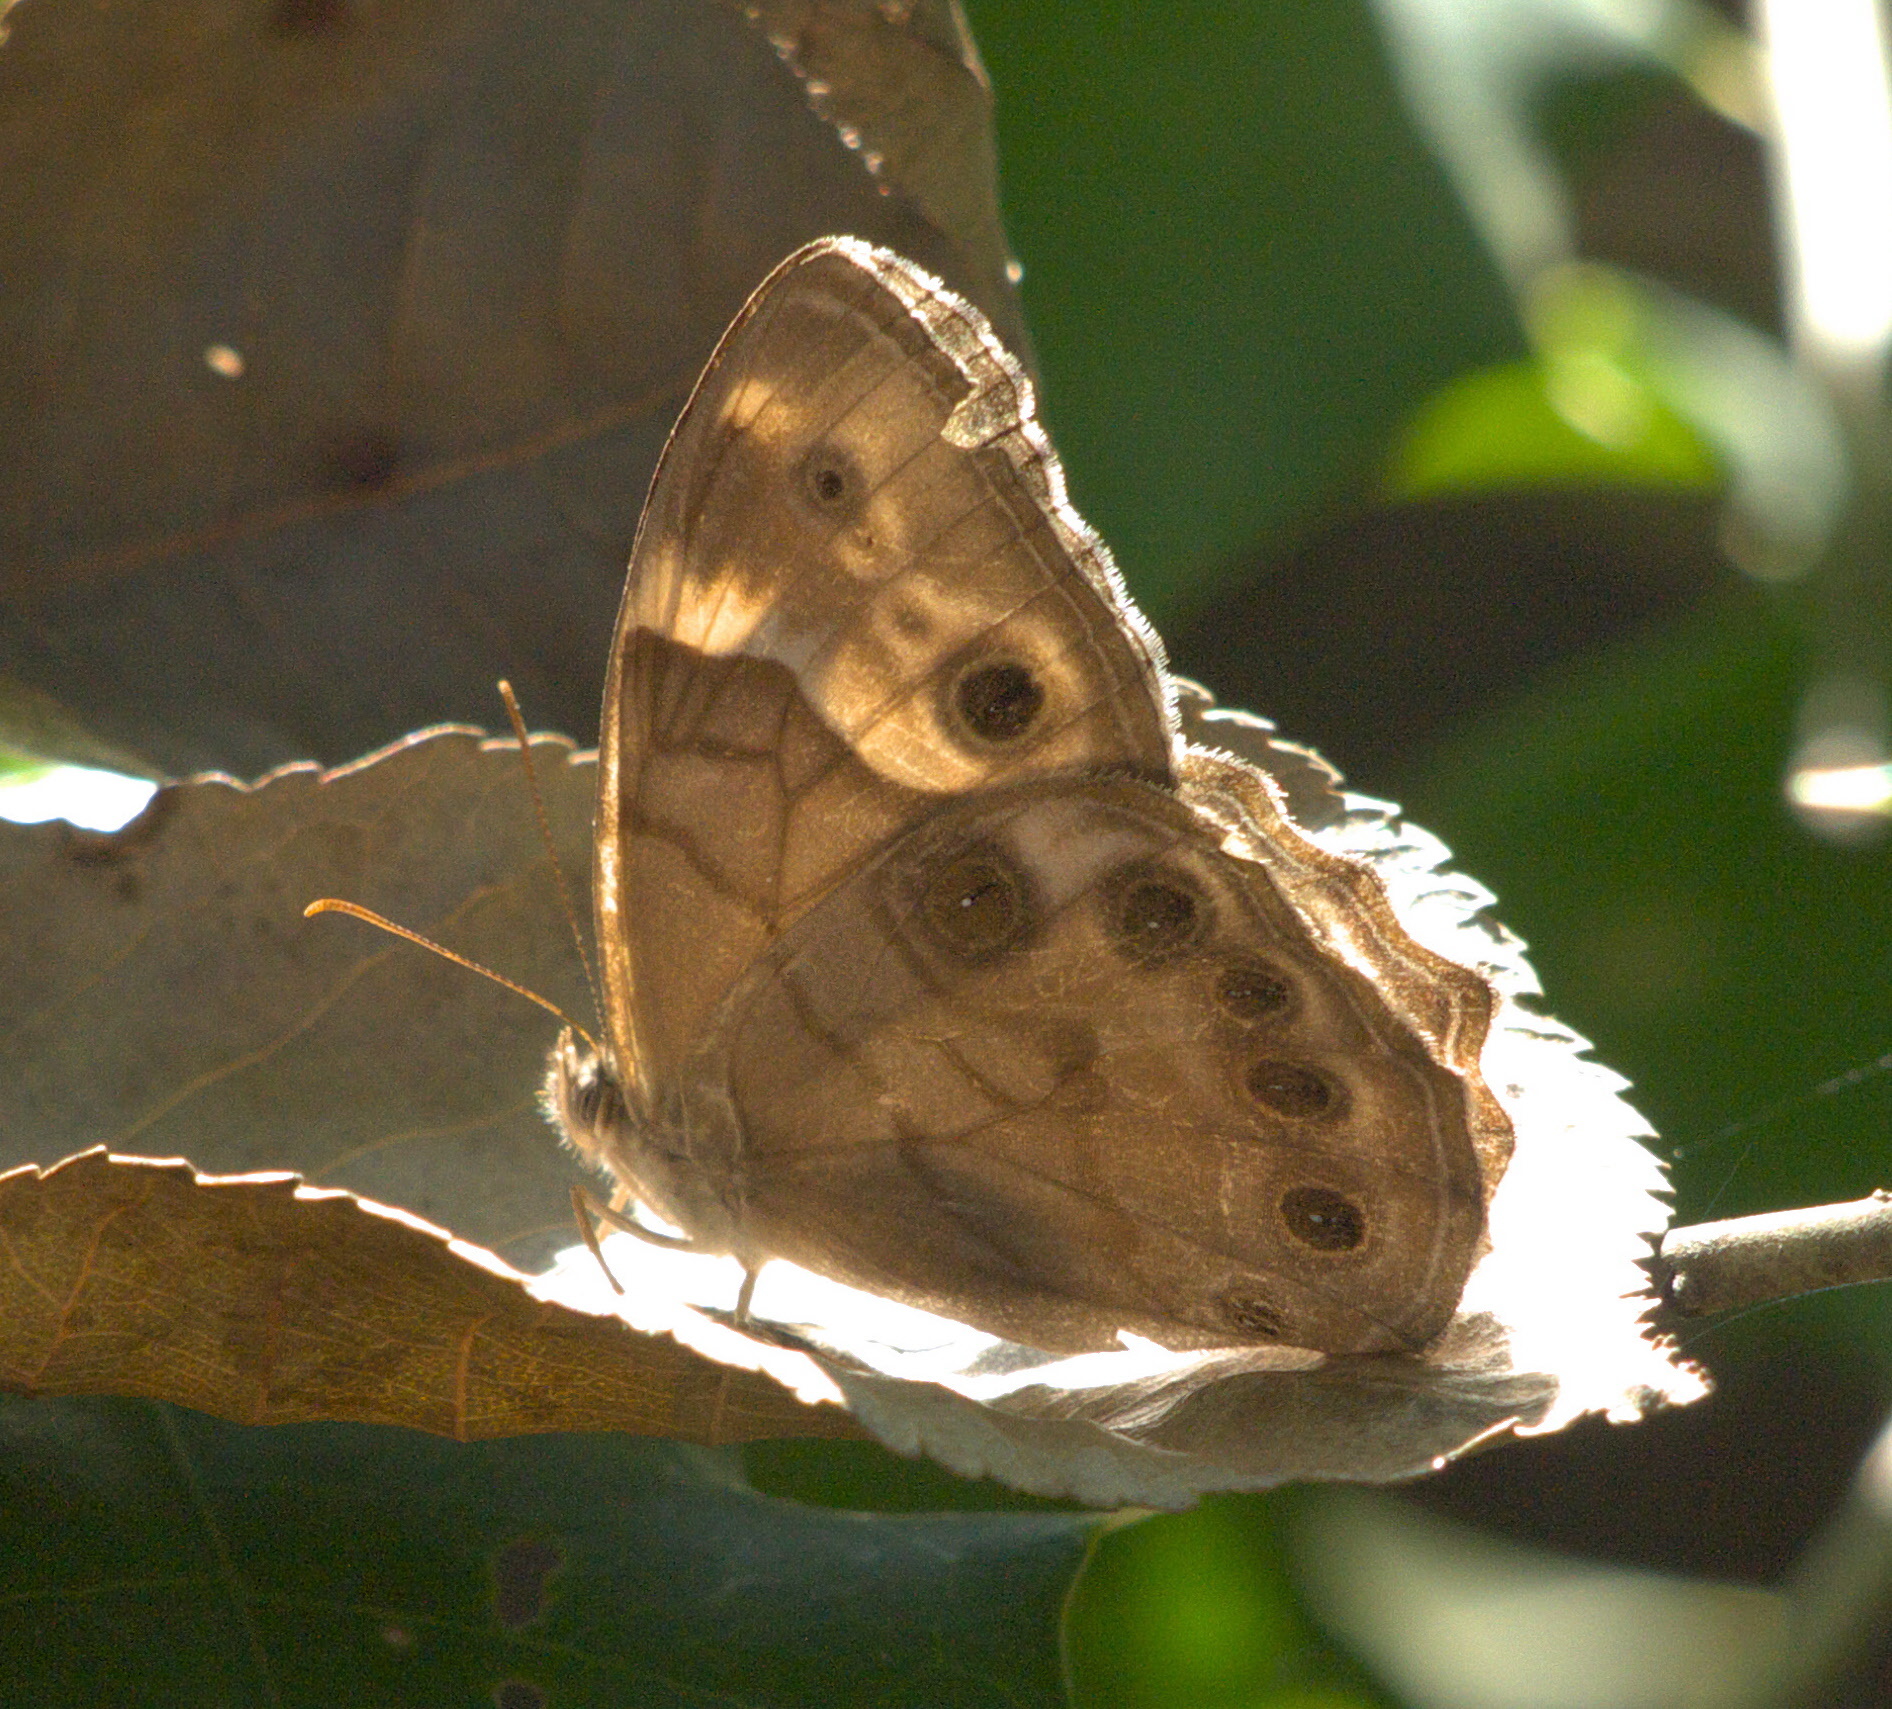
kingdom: Animalia
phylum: Arthropoda
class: Insecta
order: Lepidoptera
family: Nymphalidae
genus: Enodia
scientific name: Enodia portlandia
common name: Southern pearly-eye
